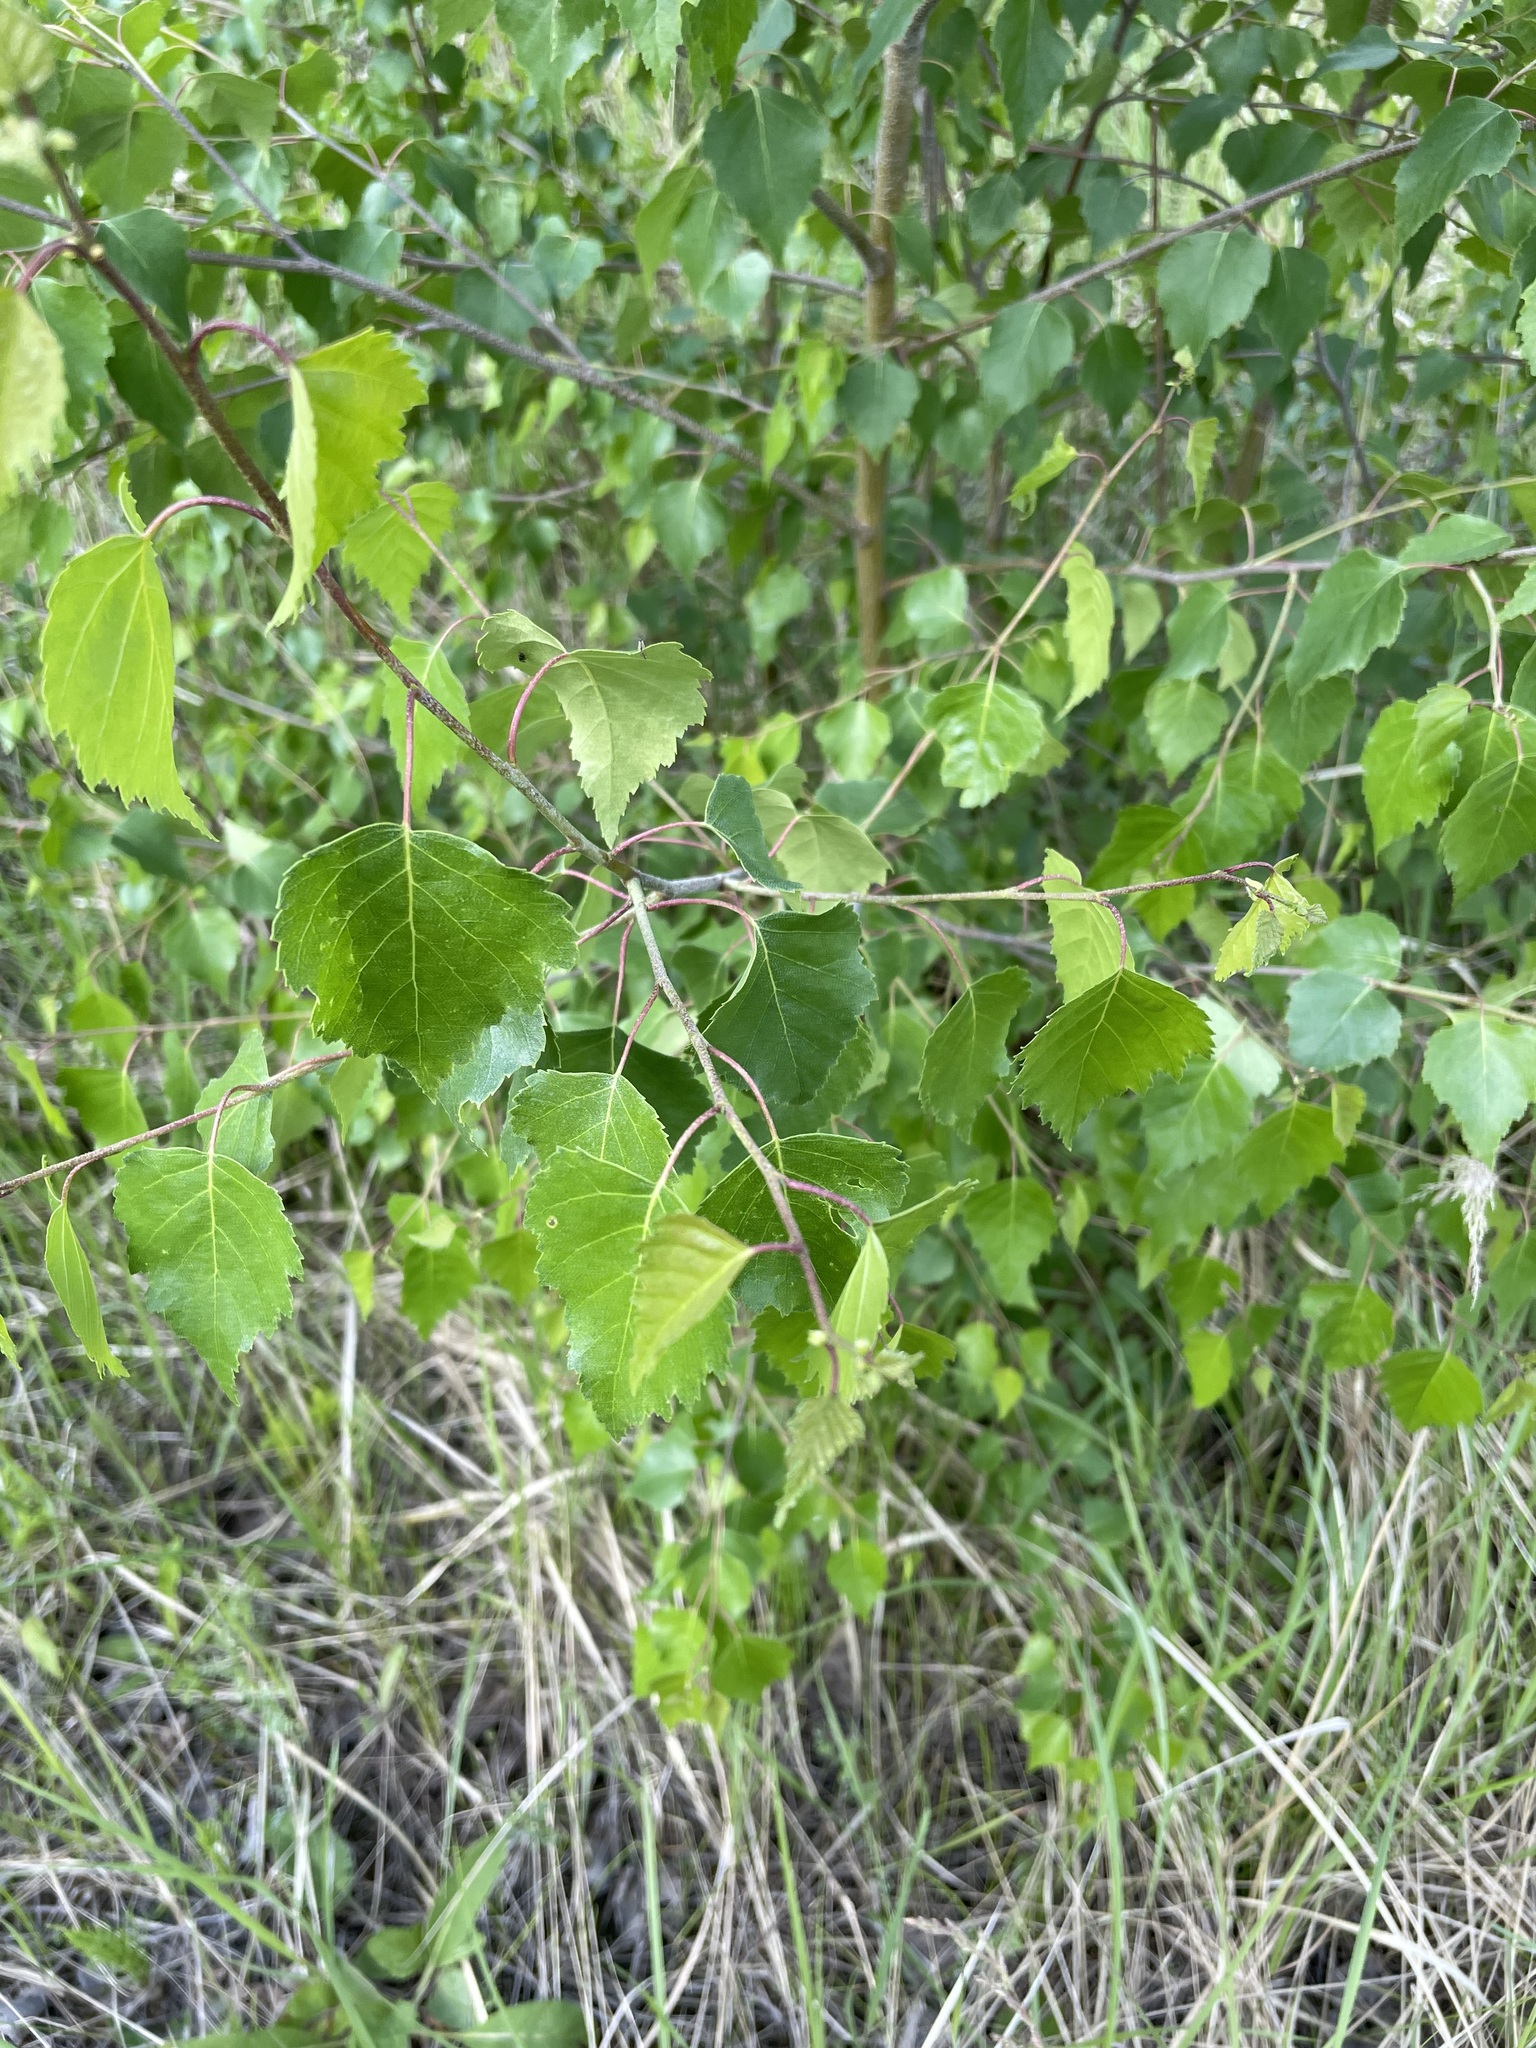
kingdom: Plantae
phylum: Tracheophyta
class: Magnoliopsida
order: Fagales
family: Betulaceae
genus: Betula
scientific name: Betula pendula
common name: Silver birch
